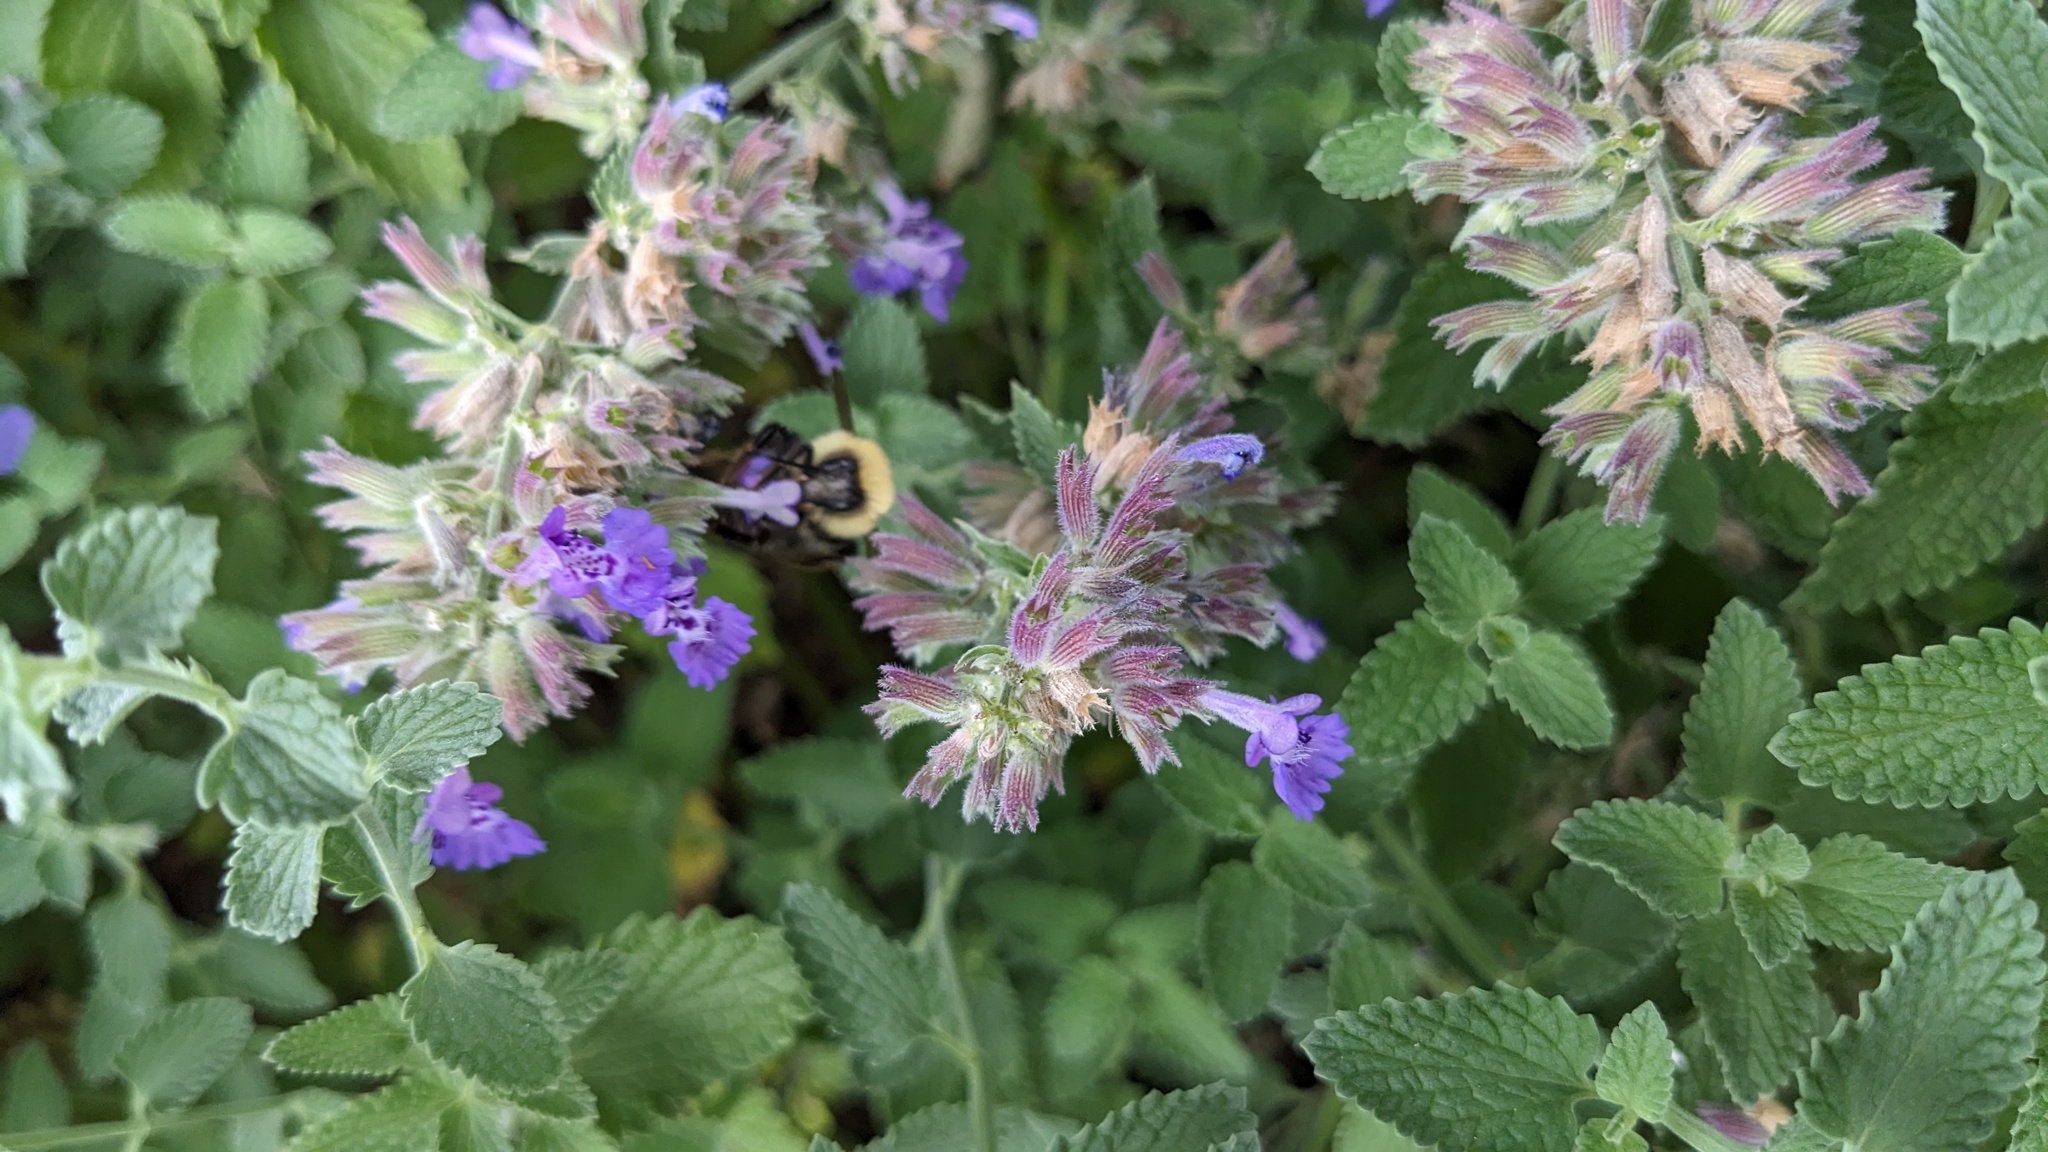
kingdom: Animalia
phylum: Arthropoda
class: Insecta
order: Hymenoptera
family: Apidae
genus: Bombus
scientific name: Bombus bimaculatus
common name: Two-spotted bumble bee
